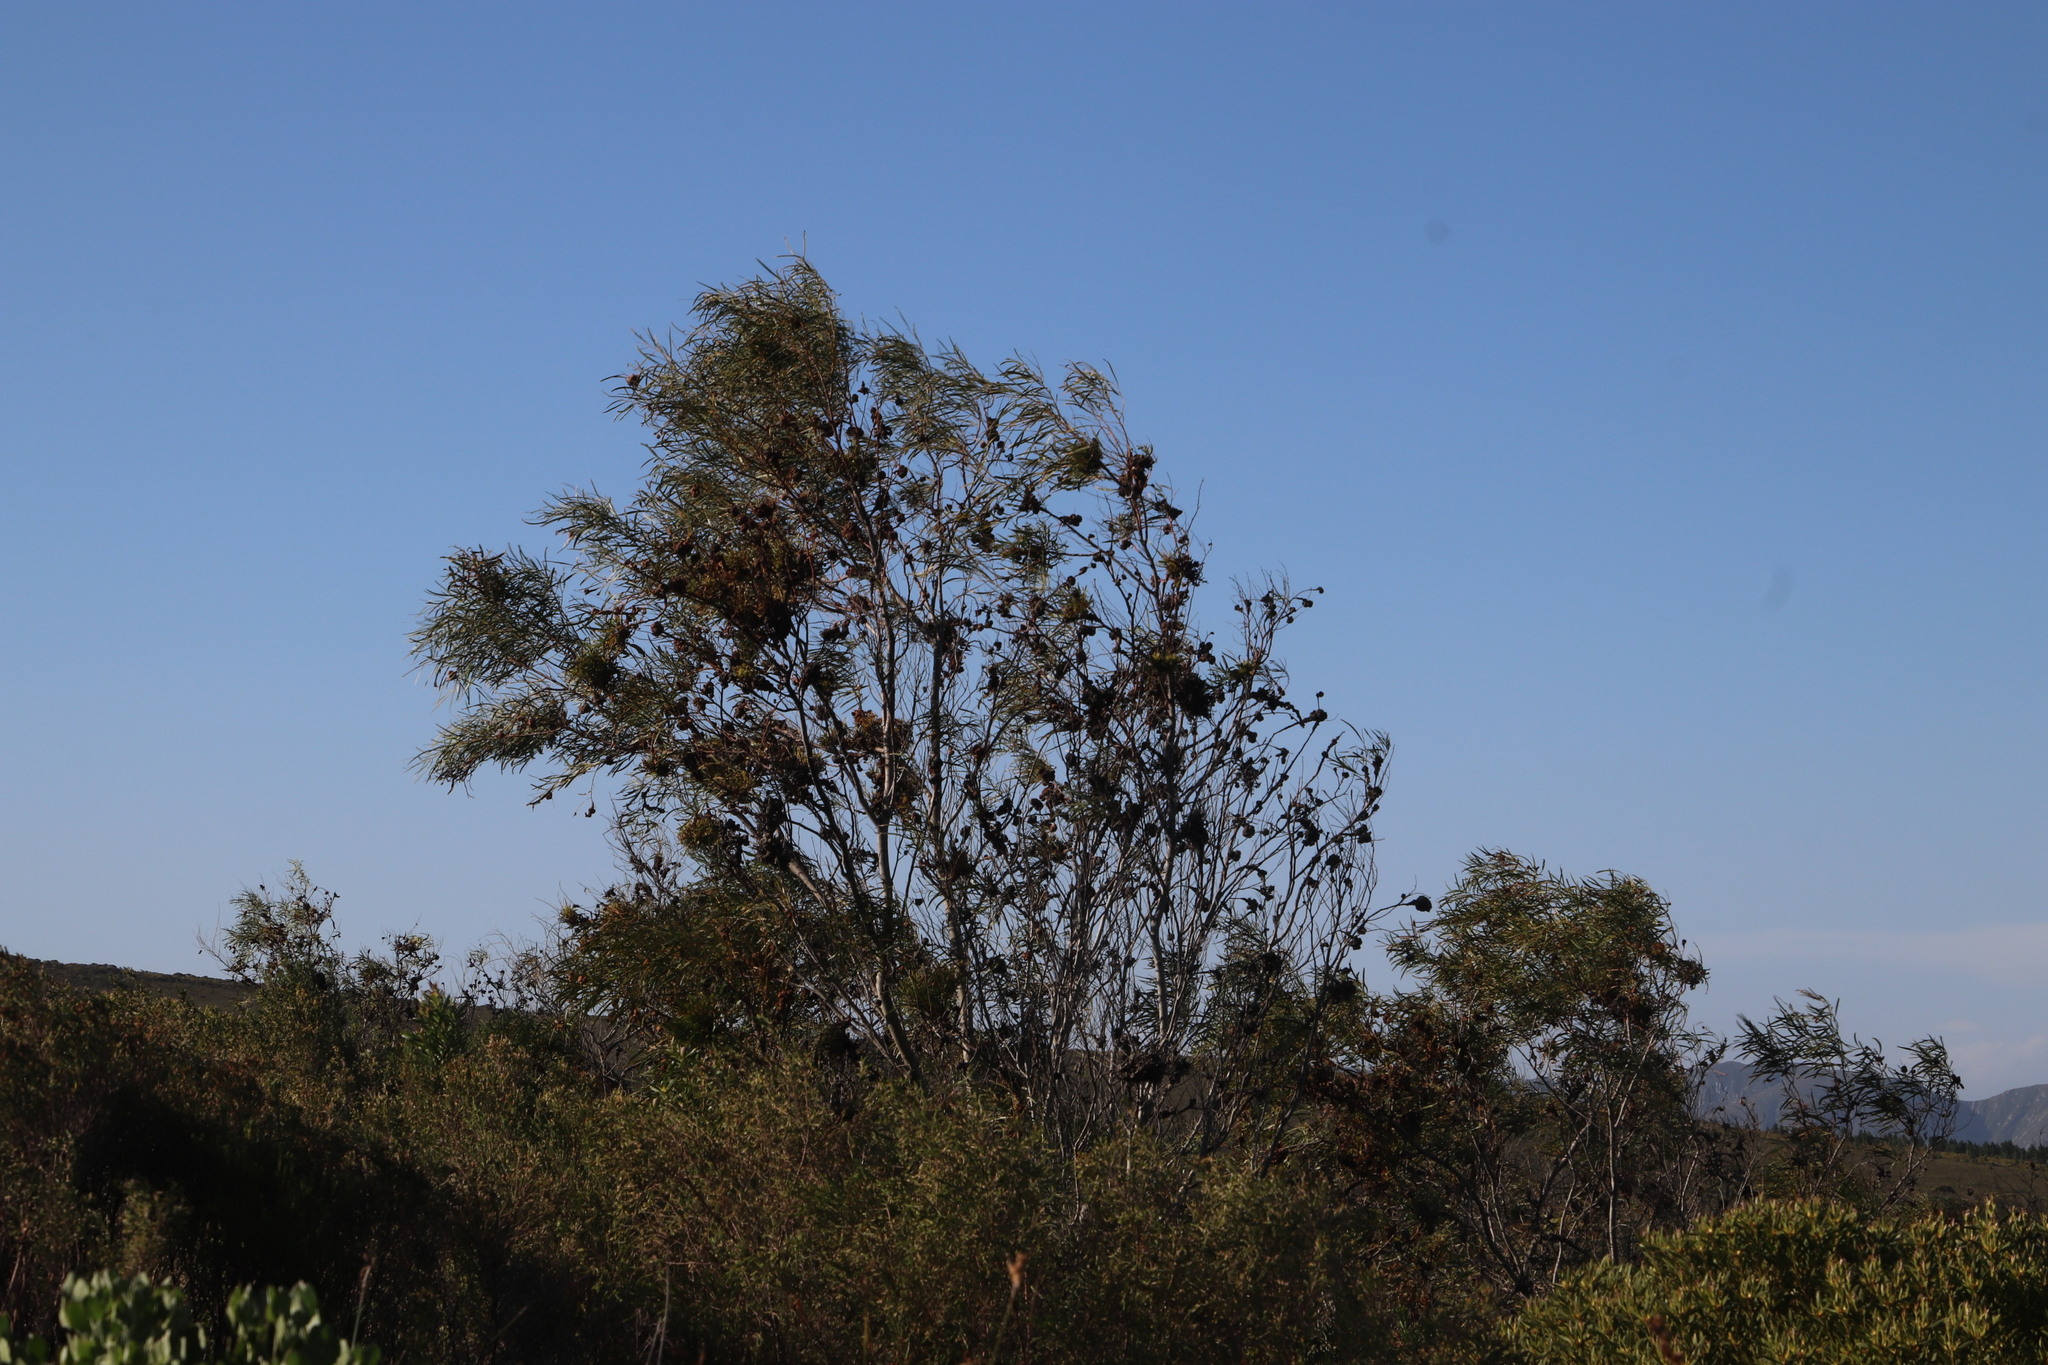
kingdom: Plantae
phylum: Tracheophyta
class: Magnoliopsida
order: Fabales
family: Fabaceae
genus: Acacia
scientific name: Acacia saligna
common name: Orange wattle
